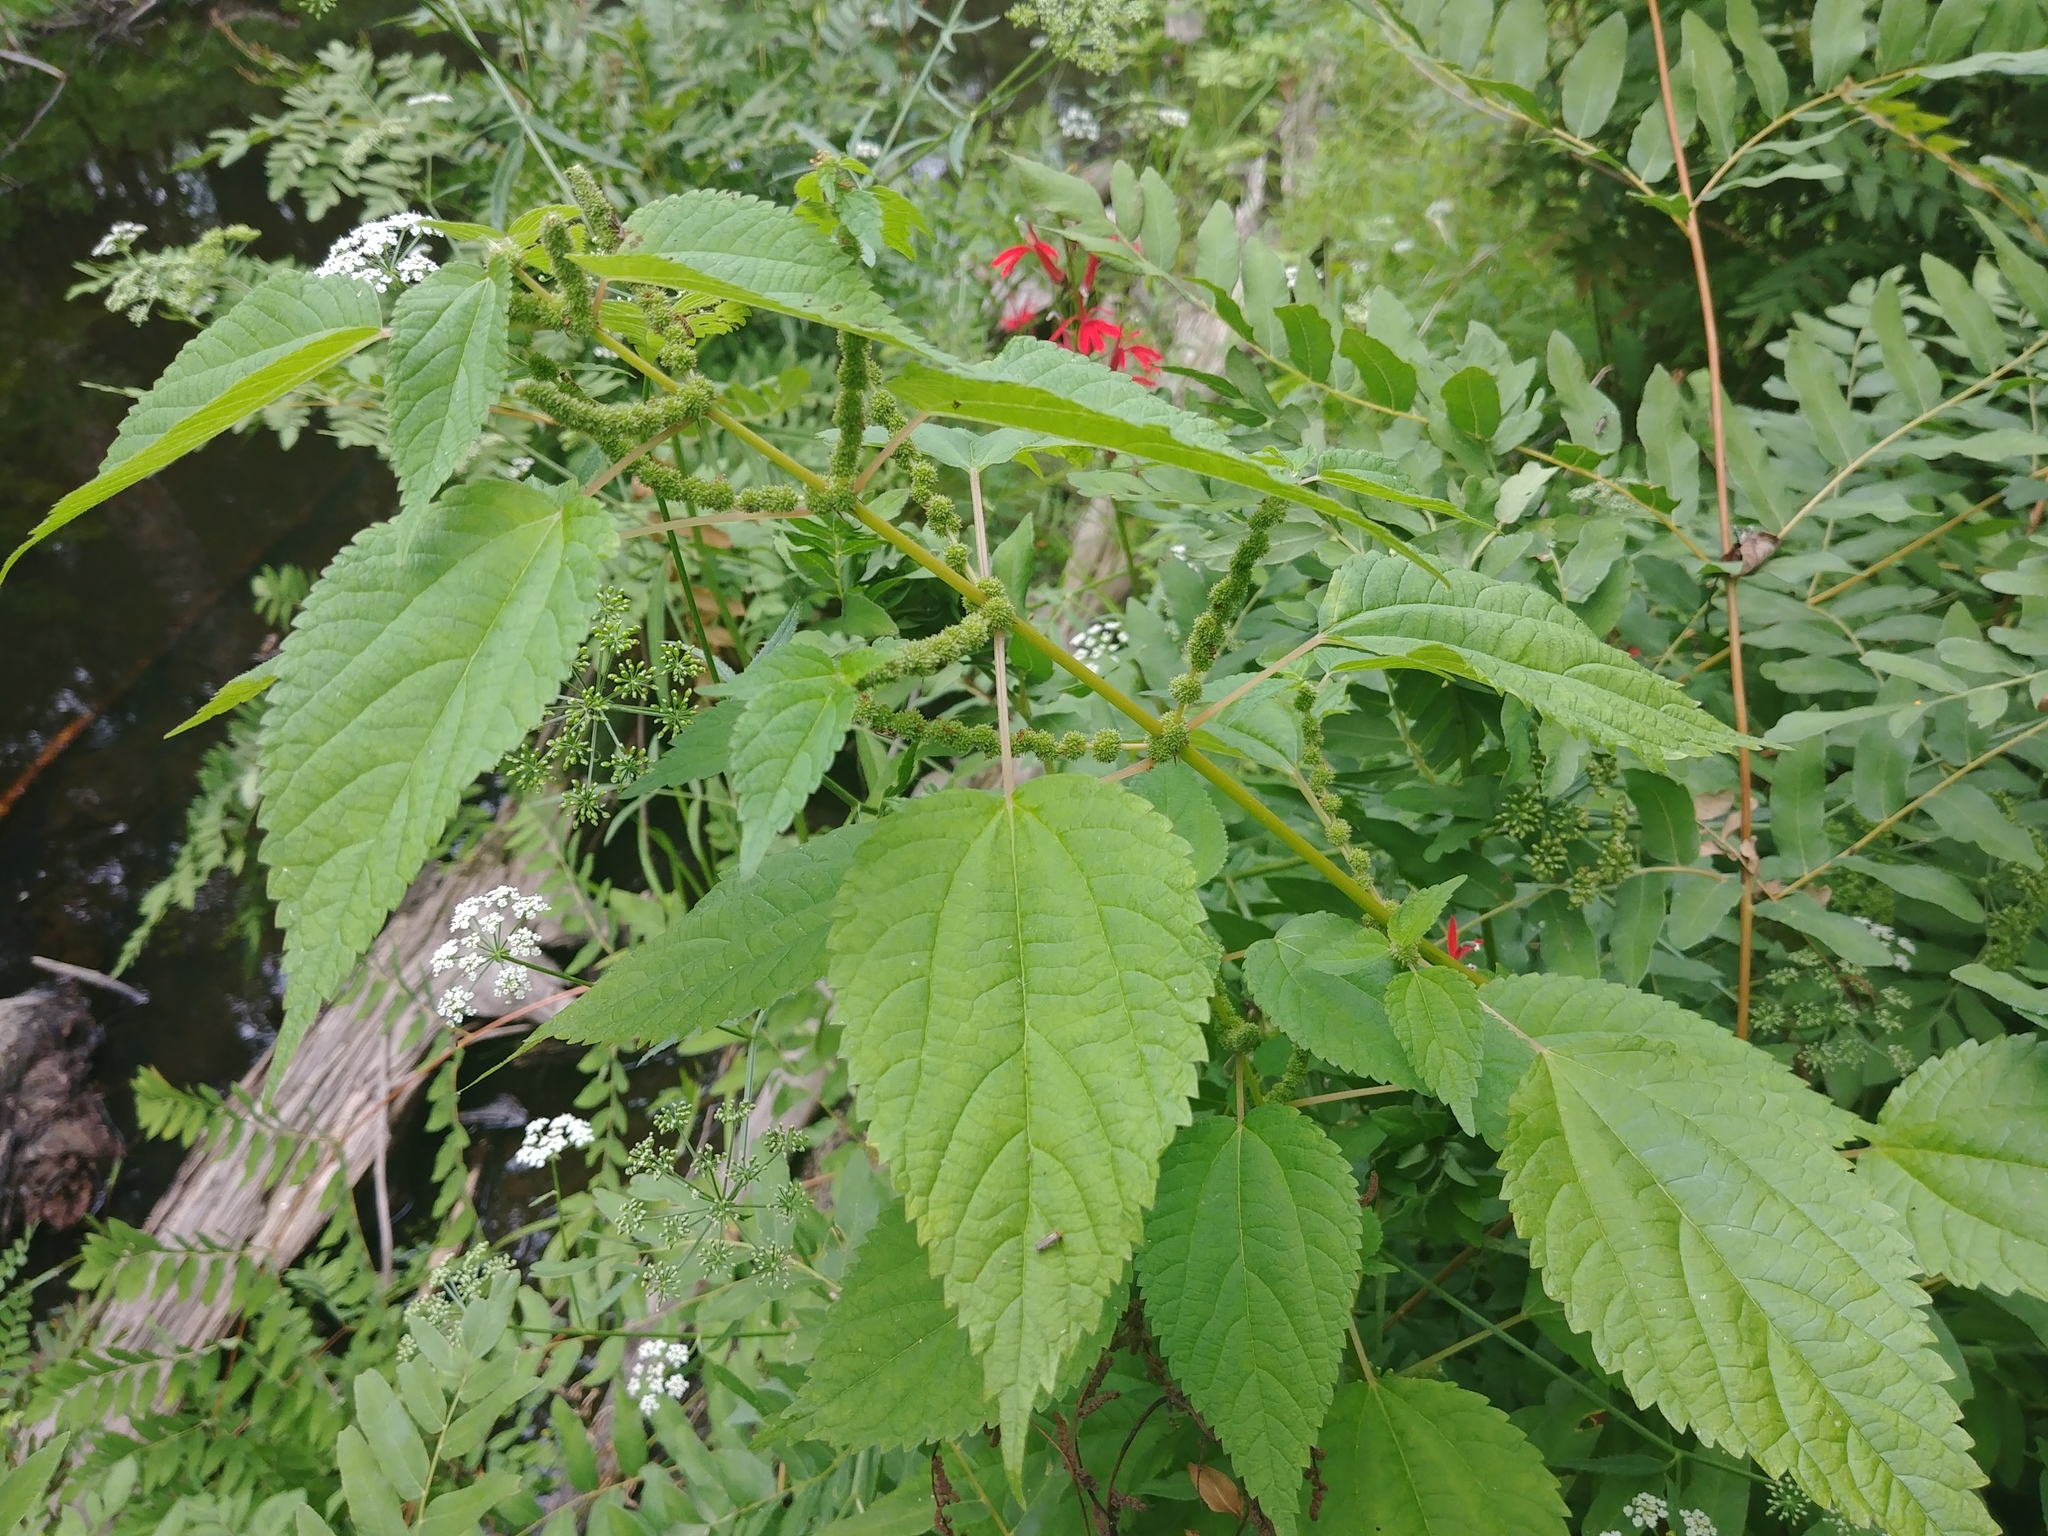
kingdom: Plantae
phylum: Tracheophyta
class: Magnoliopsida
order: Rosales
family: Urticaceae
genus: Boehmeria
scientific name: Boehmeria cylindrica
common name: Bog-hemp
